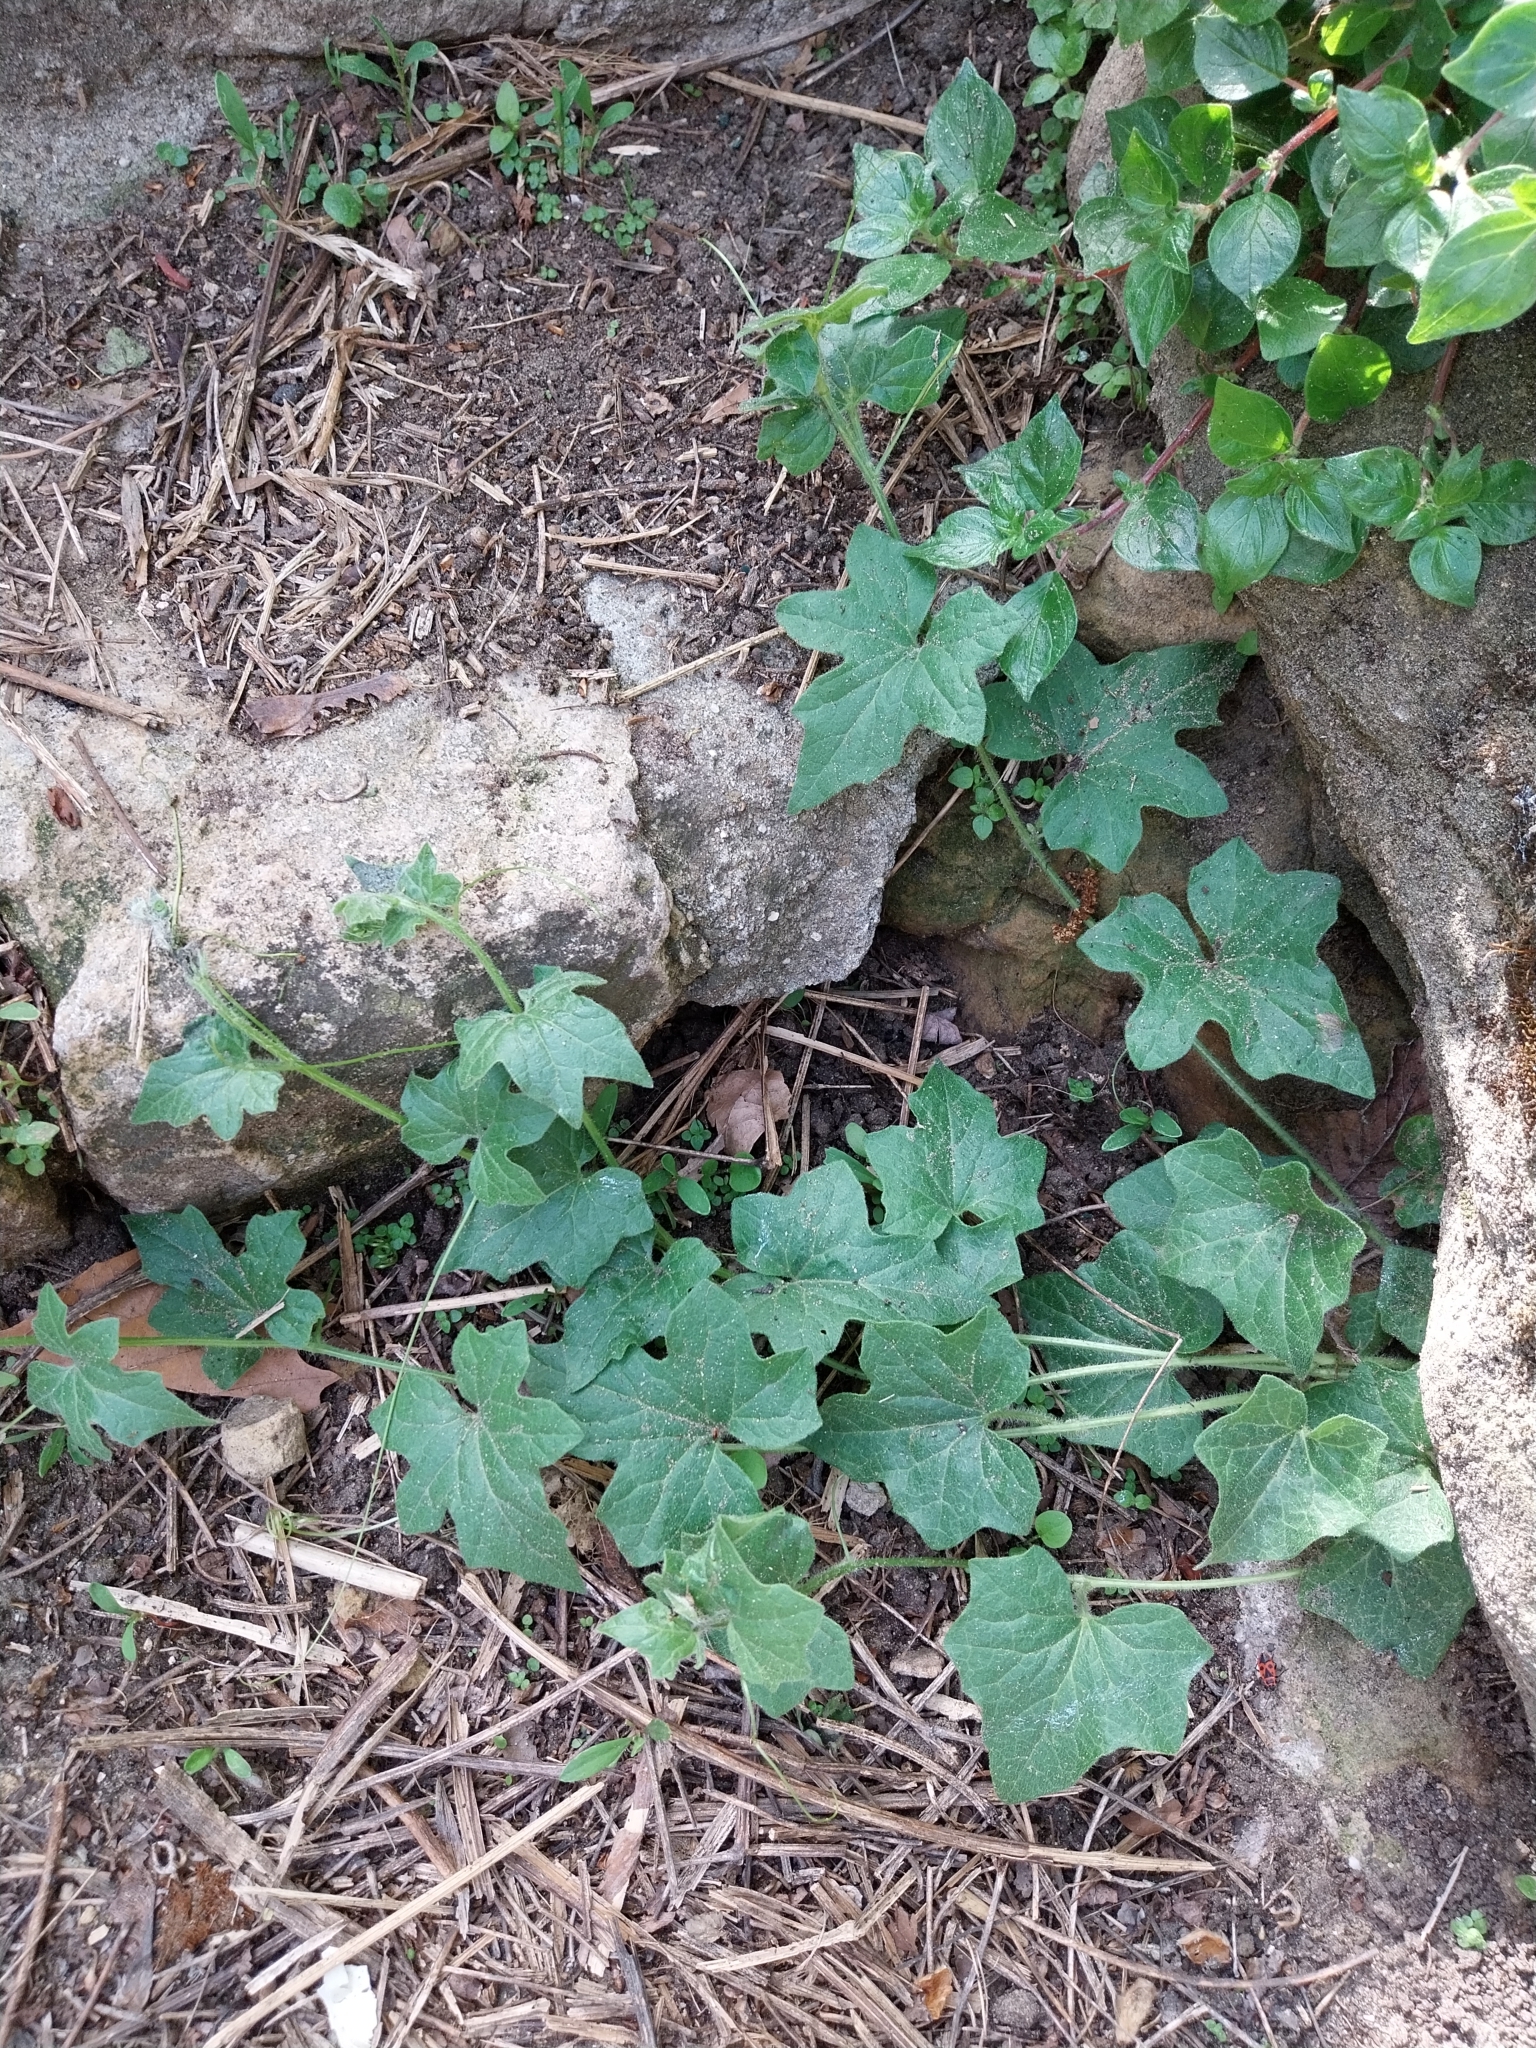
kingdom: Plantae
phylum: Tracheophyta
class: Magnoliopsida
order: Cucurbitales
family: Cucurbitaceae
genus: Bryonia
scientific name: Bryonia cretica
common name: Cretan bryony
